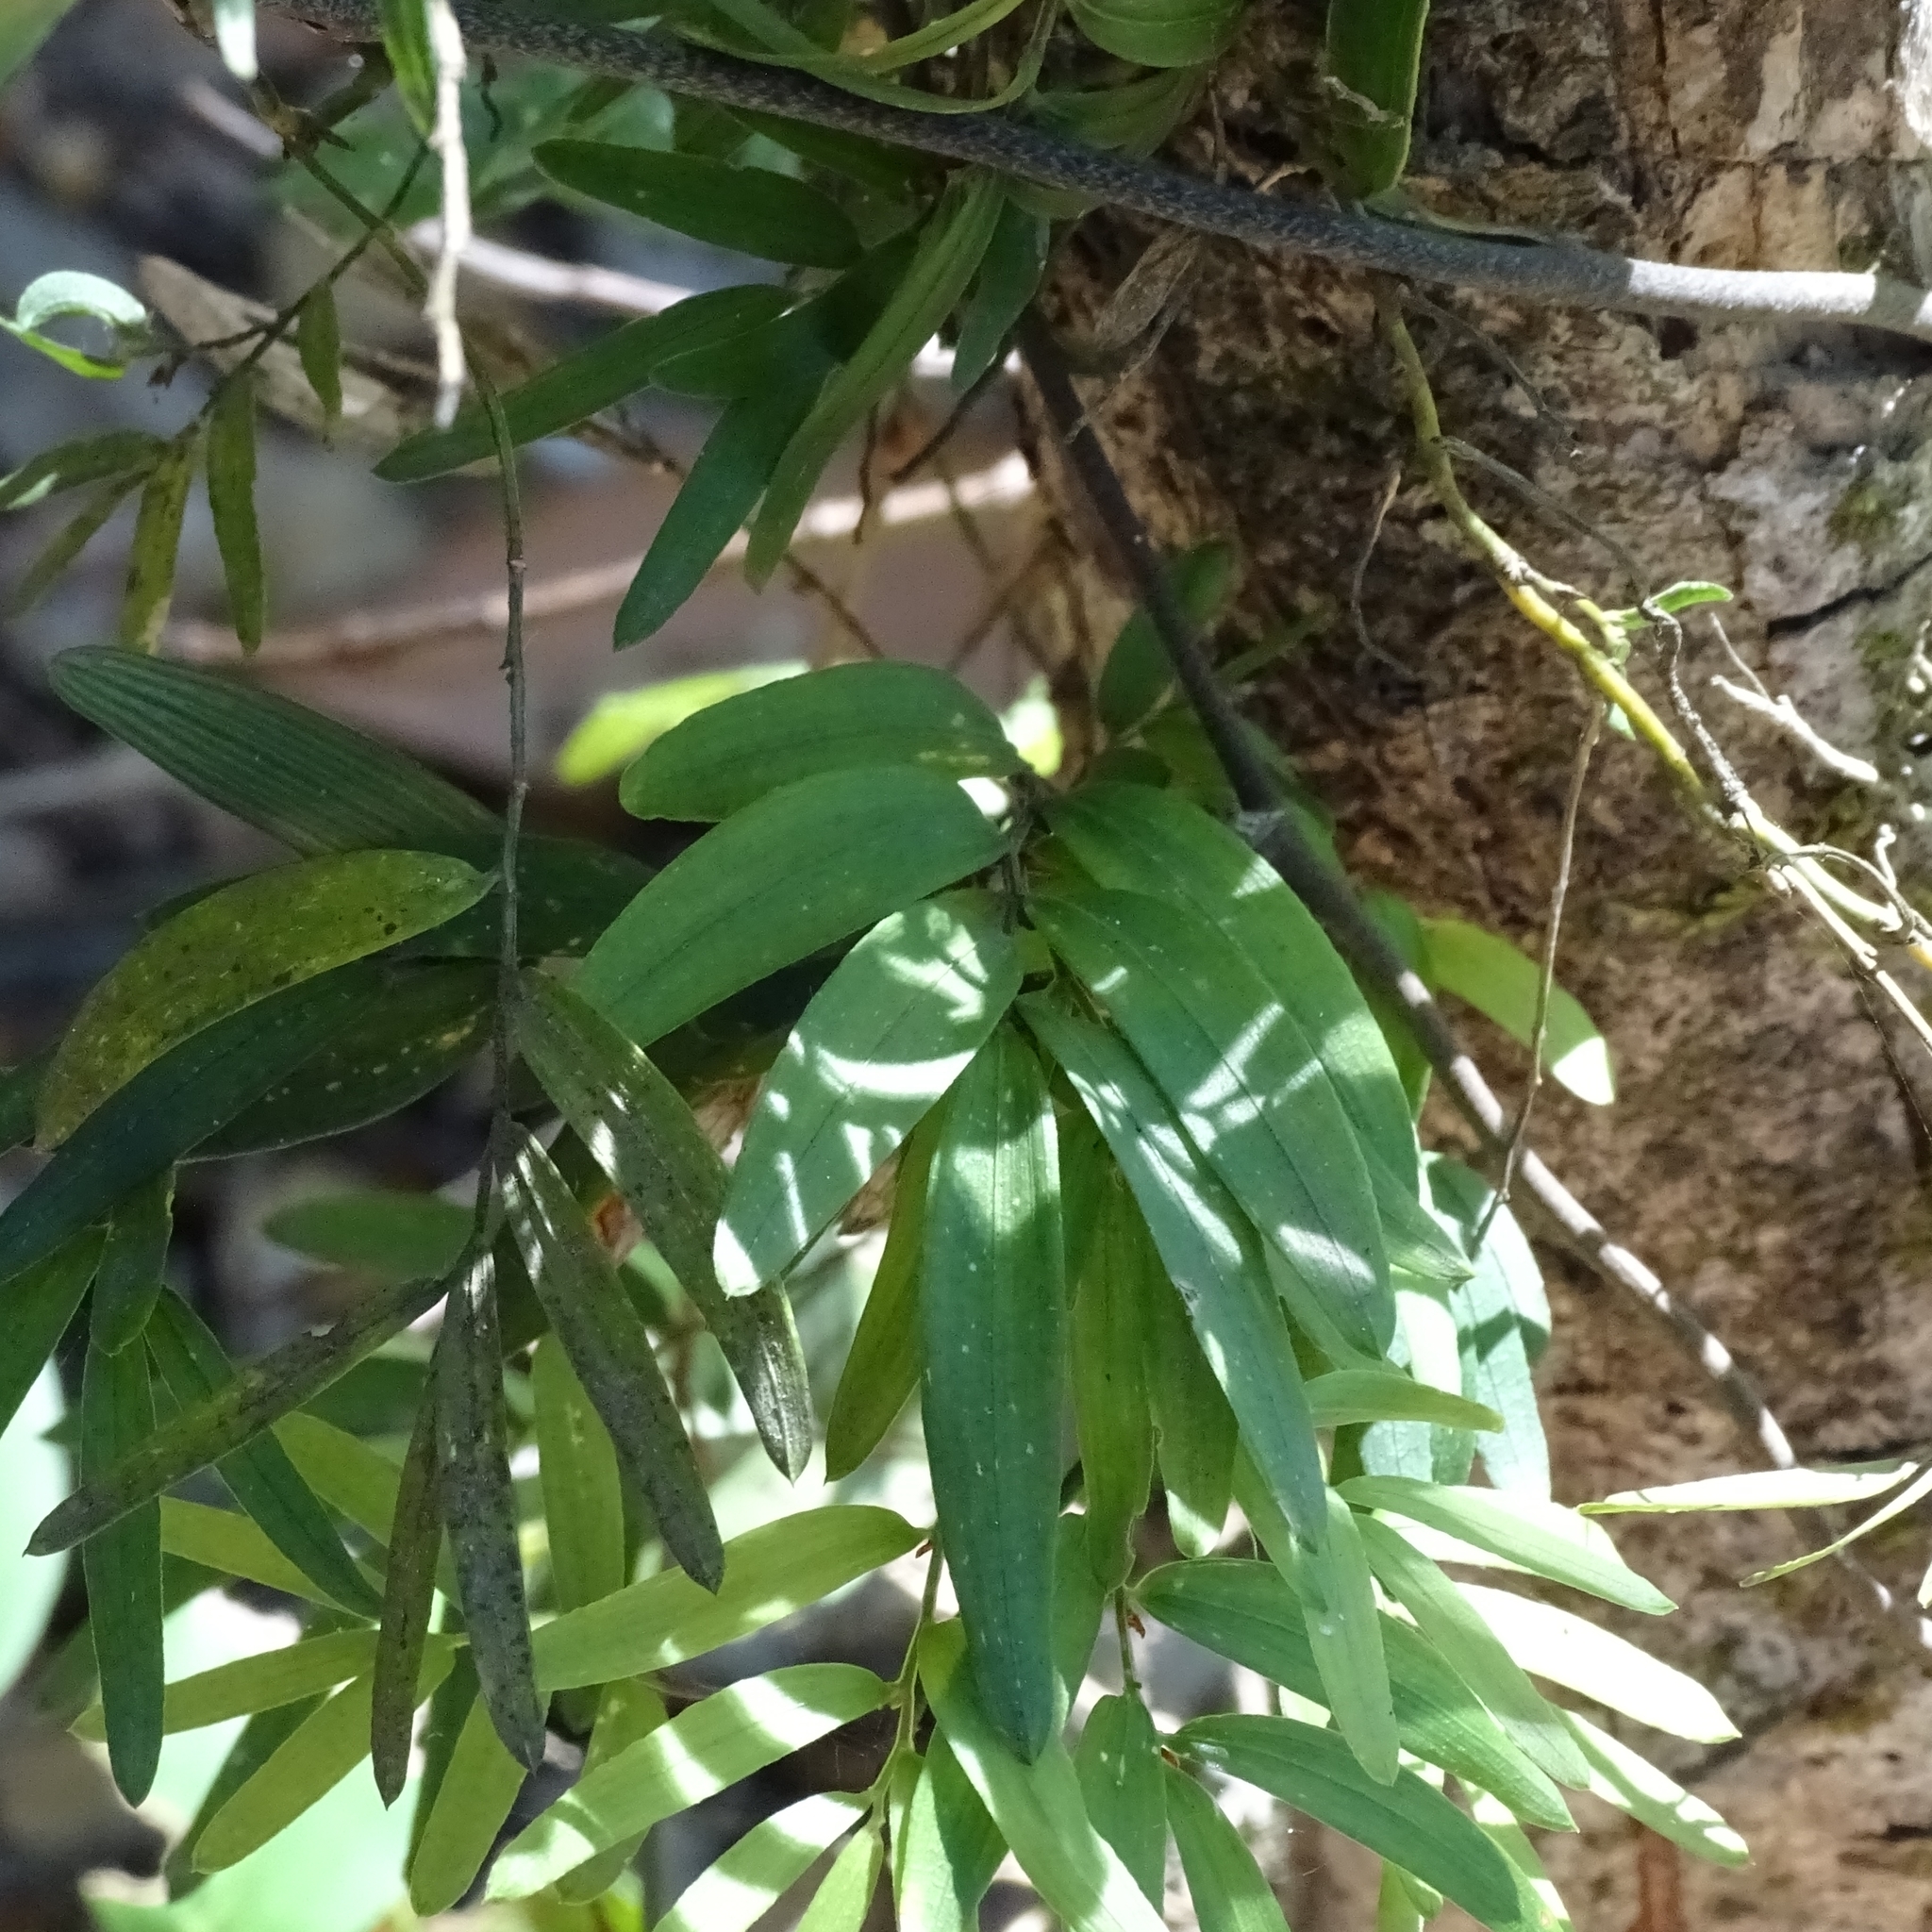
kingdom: Plantae
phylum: Tracheophyta
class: Liliopsida
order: Liliales
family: Alstroemeriaceae
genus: Luzuriaga
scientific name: Luzuriaga radicans
